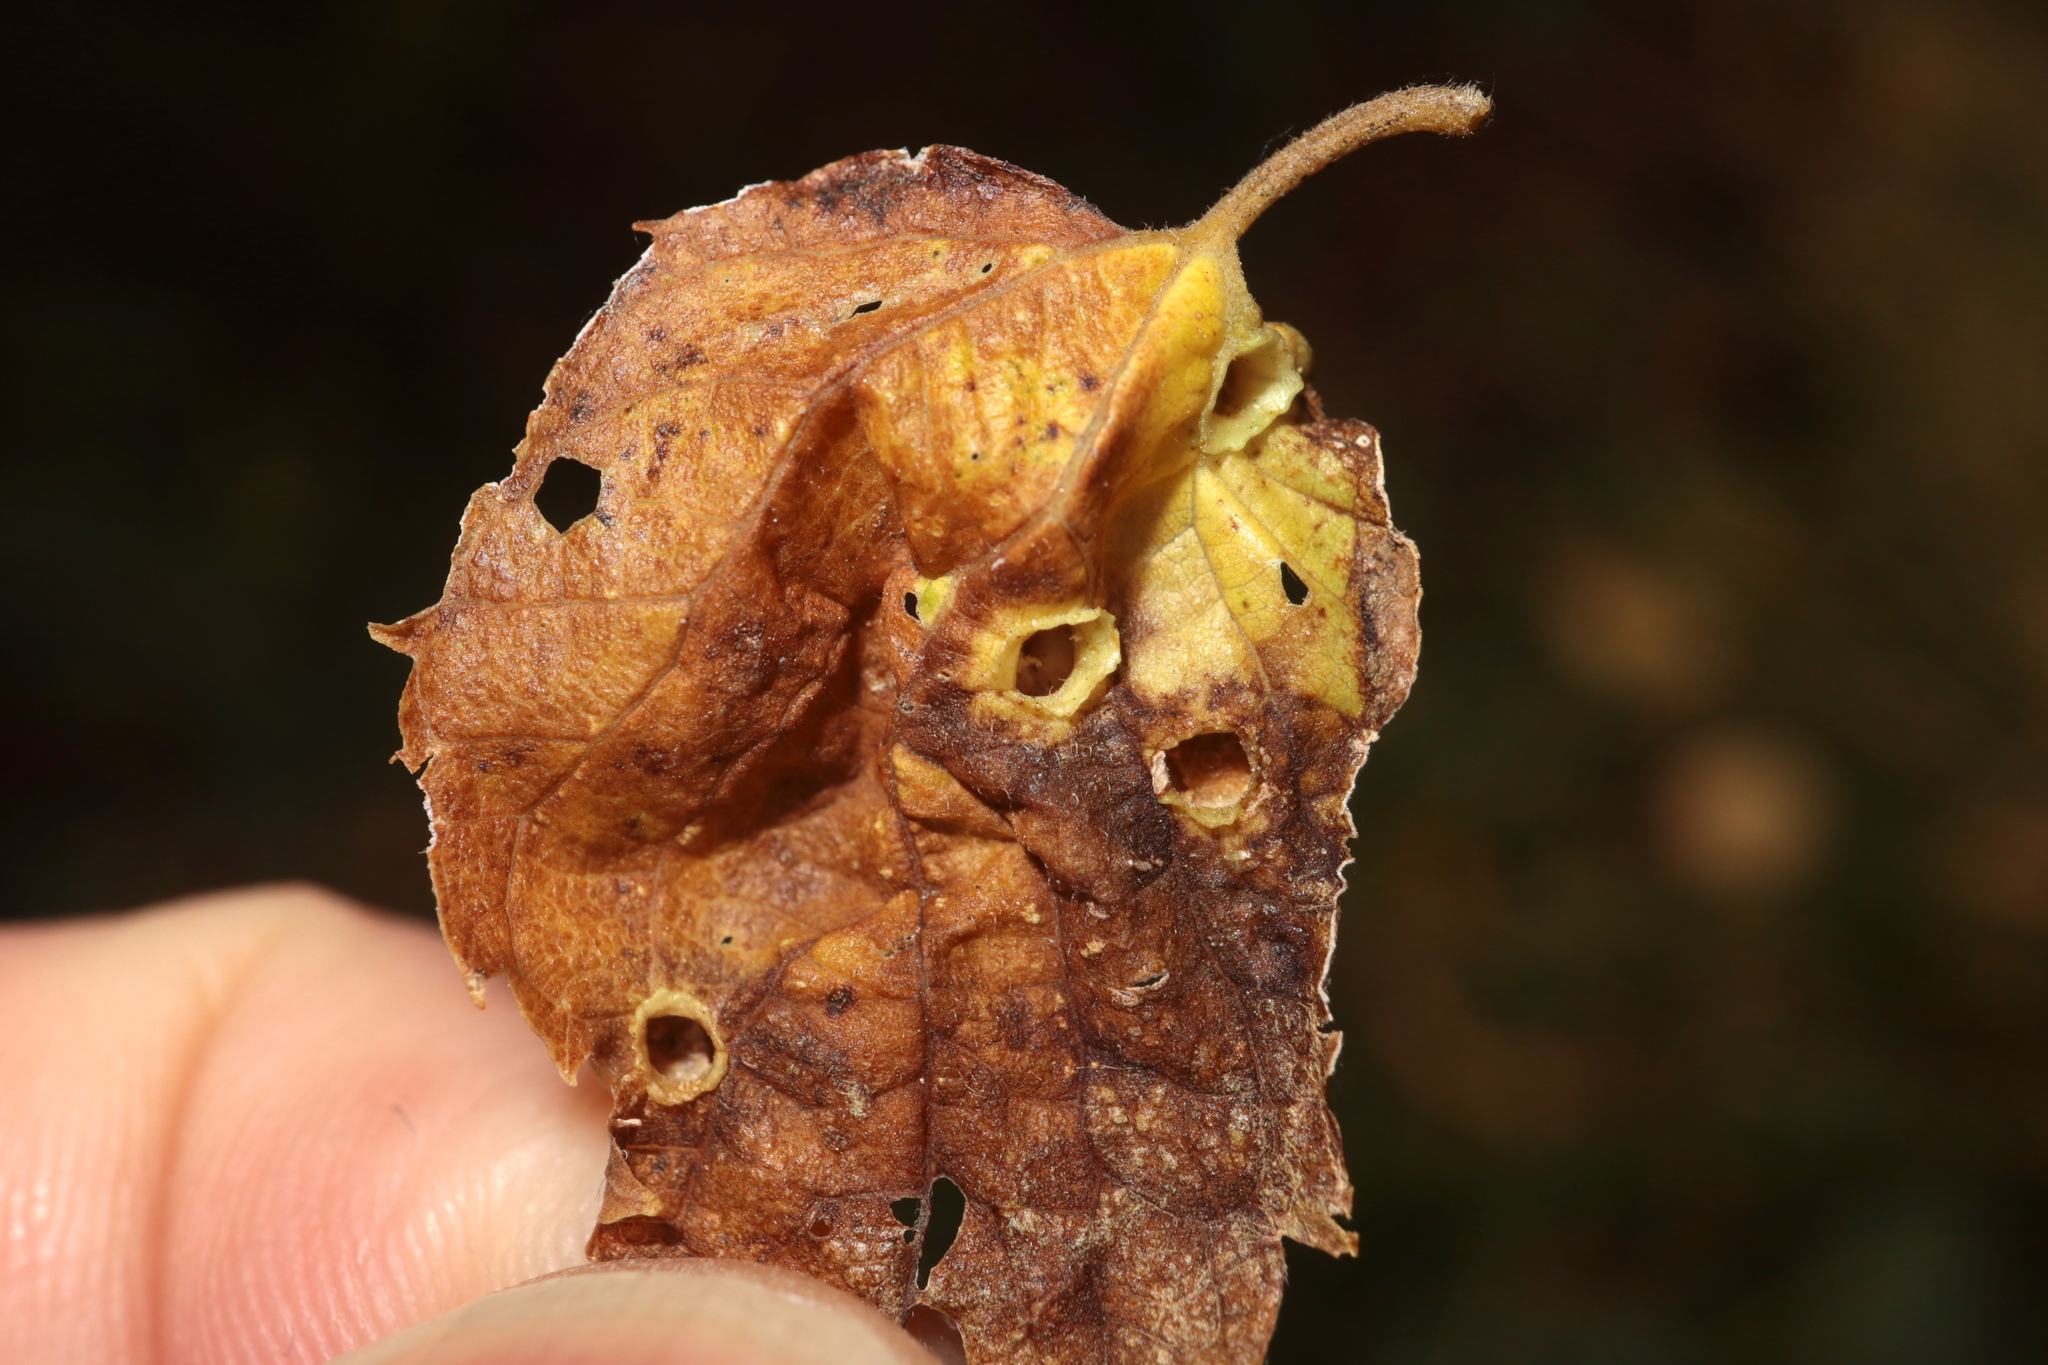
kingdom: Animalia
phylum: Arthropoda
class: Insecta
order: Hemiptera
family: Aphalaridae
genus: Pachypsylla
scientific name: Pachypsylla celtidismamma
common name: Hackberry nipplegall psyllid
